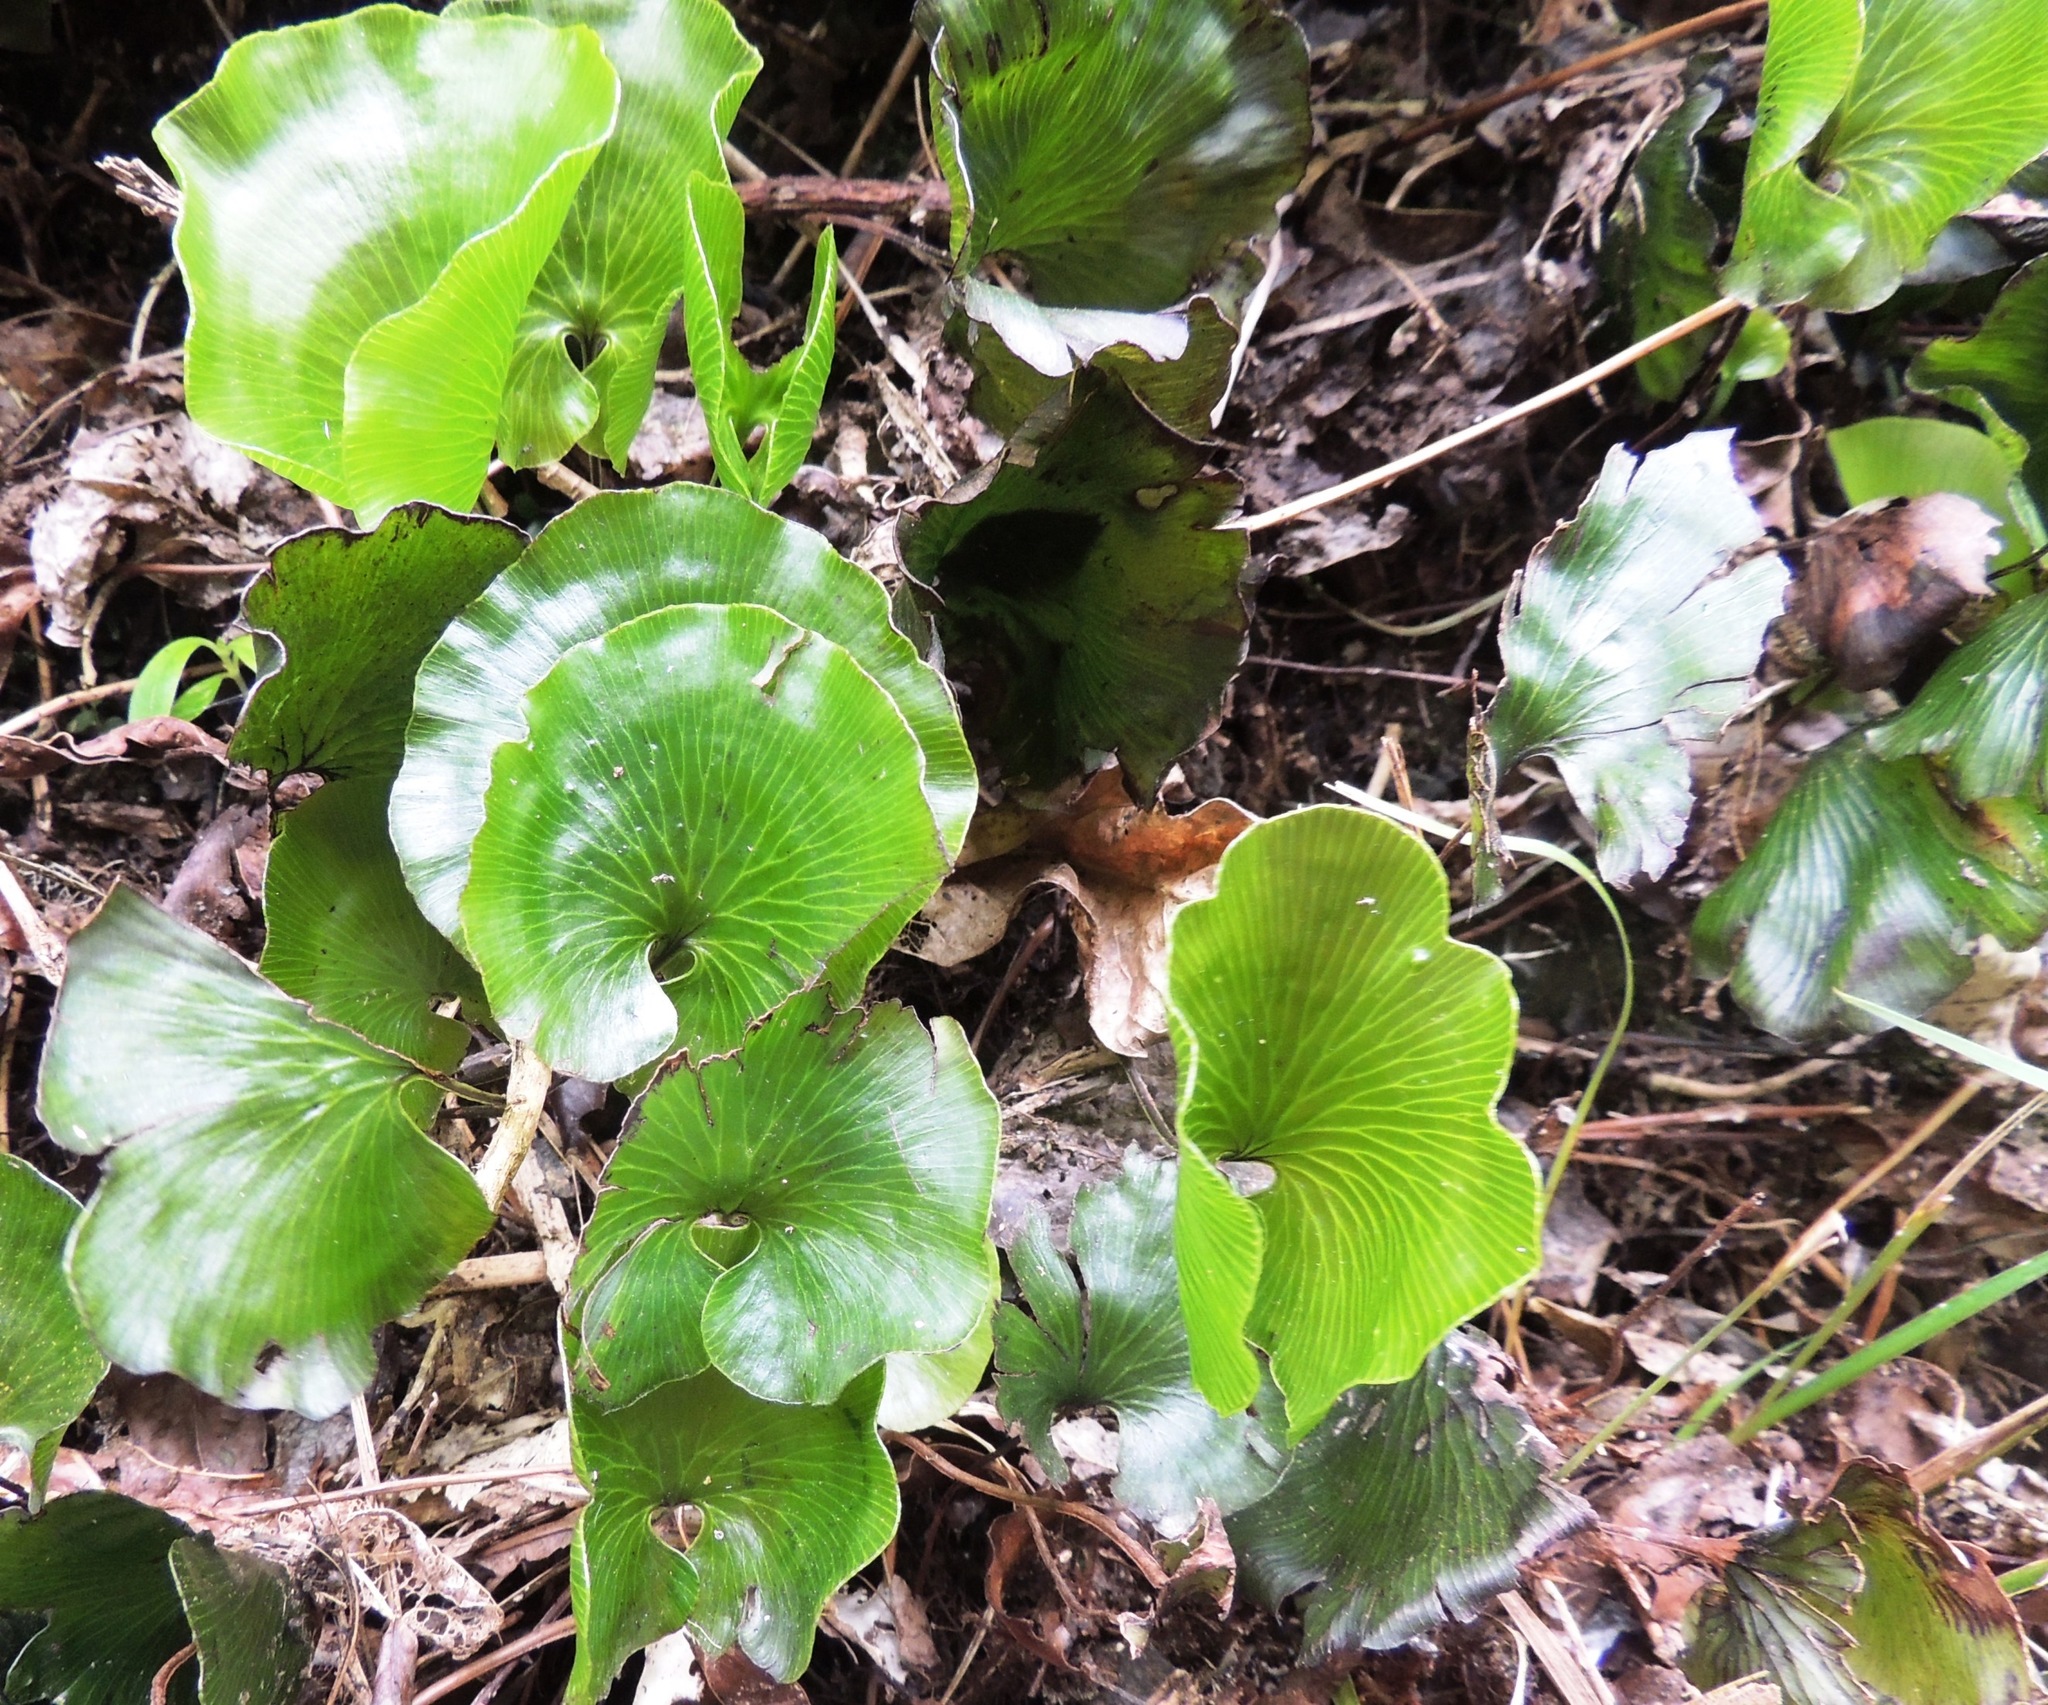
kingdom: Plantae
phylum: Tracheophyta
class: Polypodiopsida
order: Hymenophyllales
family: Hymenophyllaceae
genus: Hymenophyllum
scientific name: Hymenophyllum nephrophyllum
